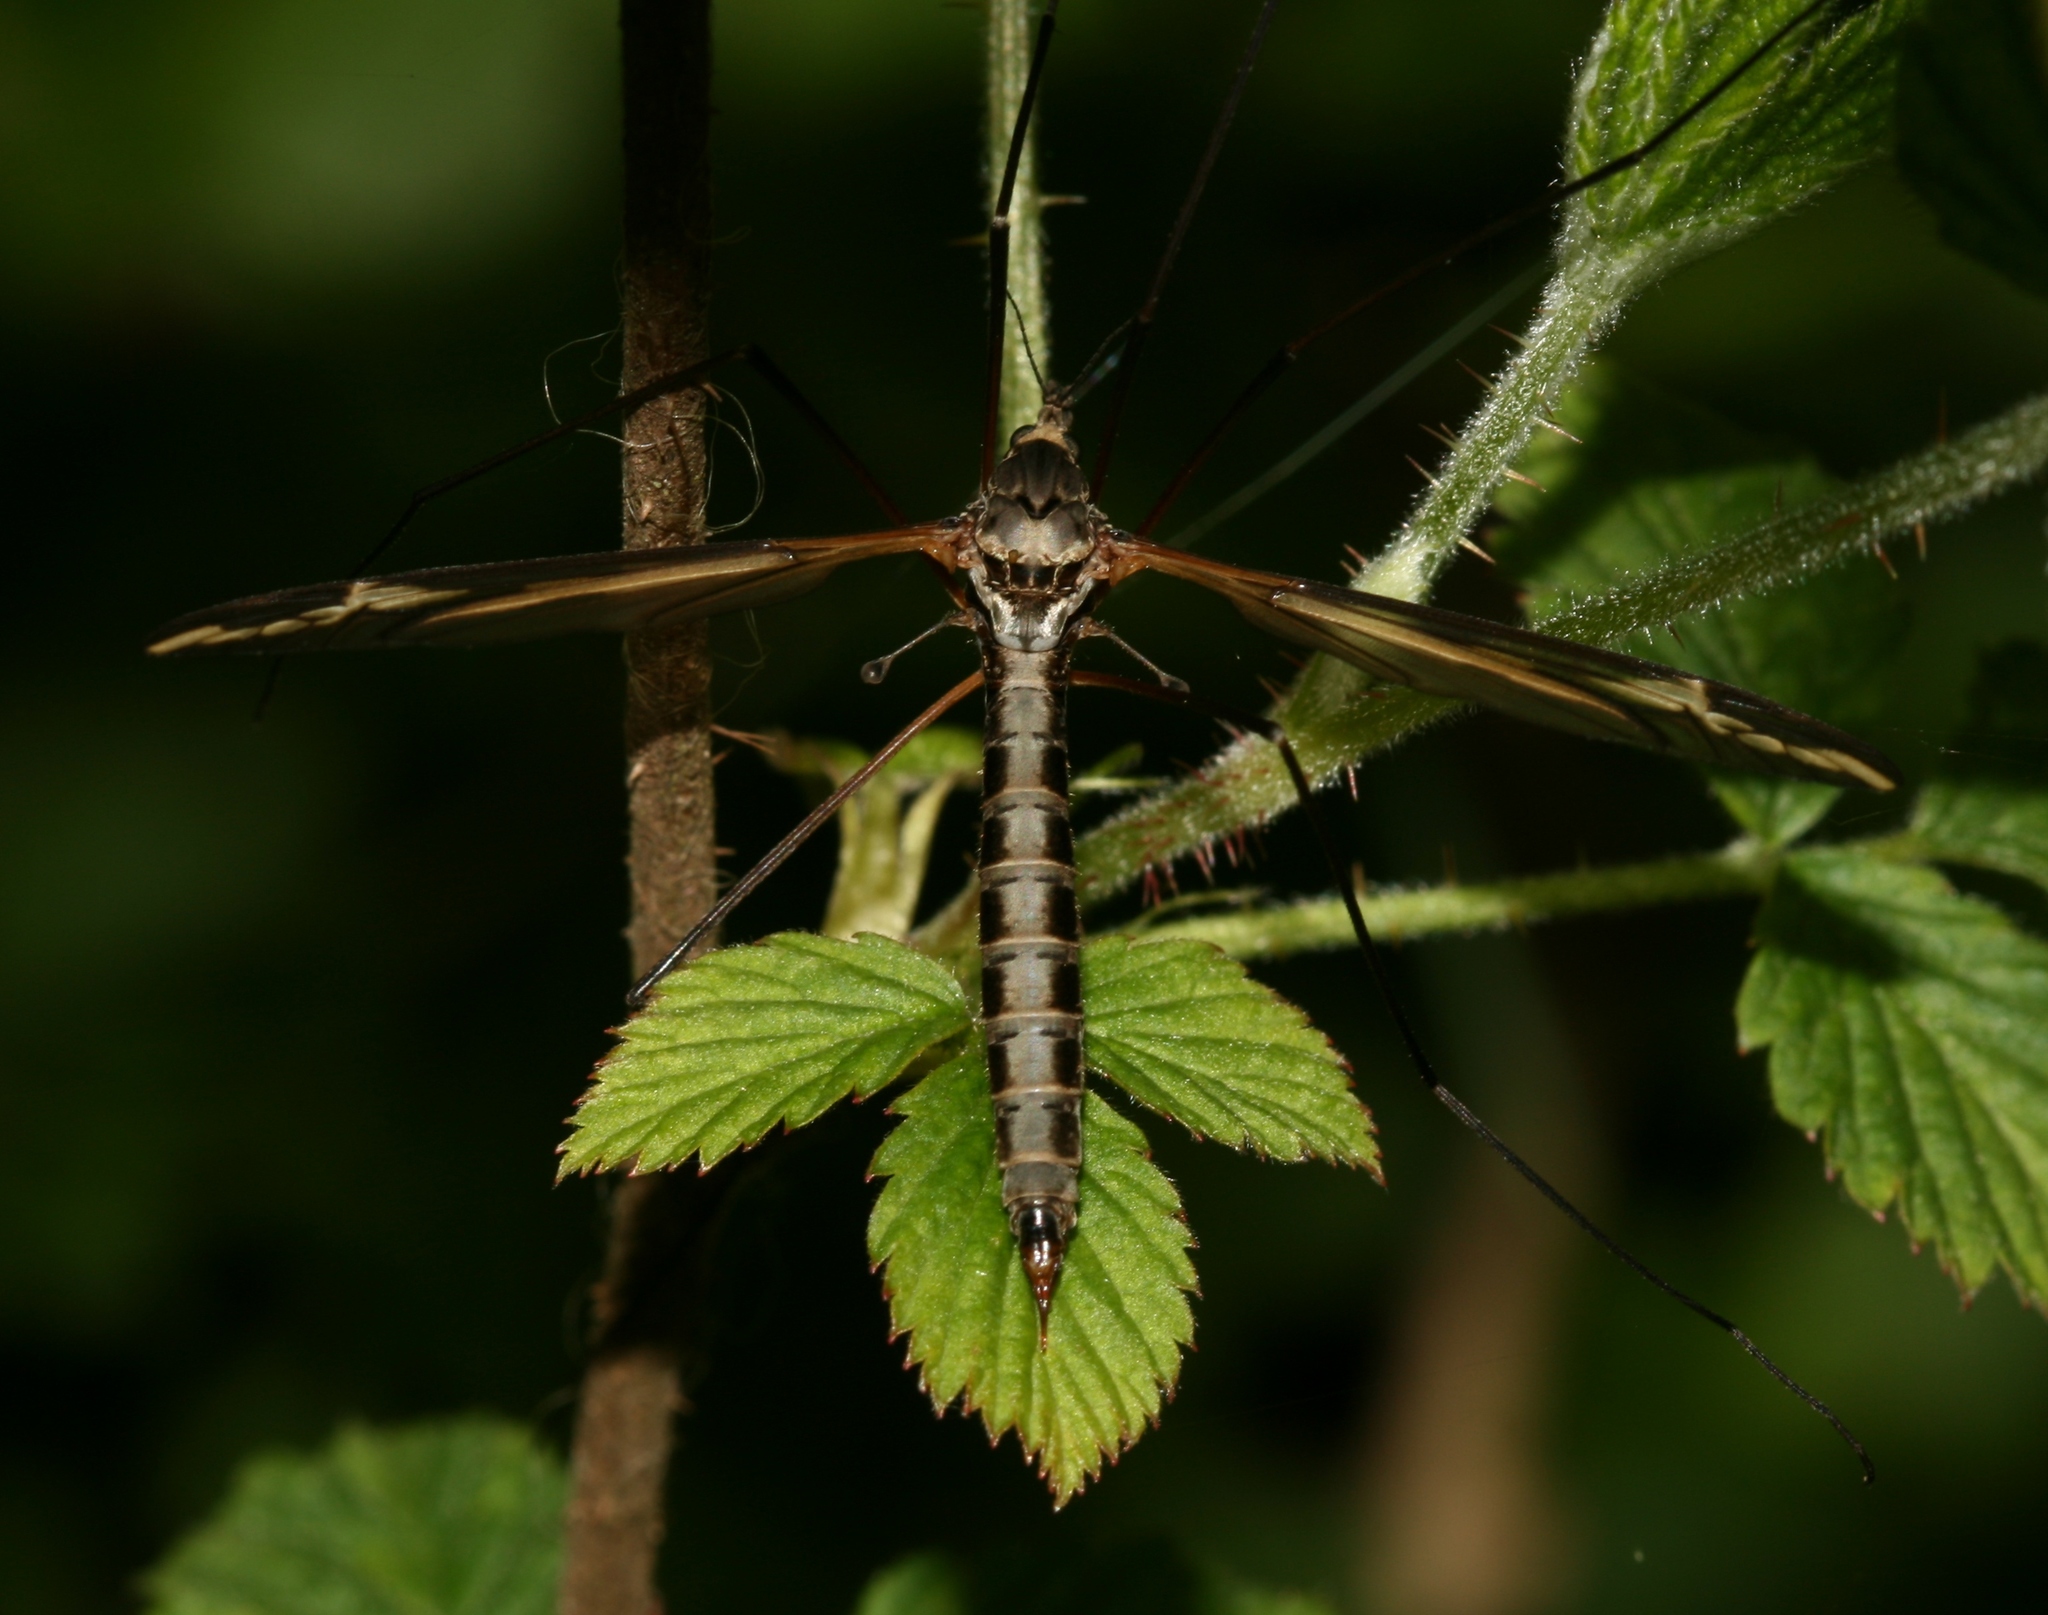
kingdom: Animalia
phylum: Arthropoda
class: Insecta
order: Diptera
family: Tipulidae
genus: Tipula
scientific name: Tipula vittata
